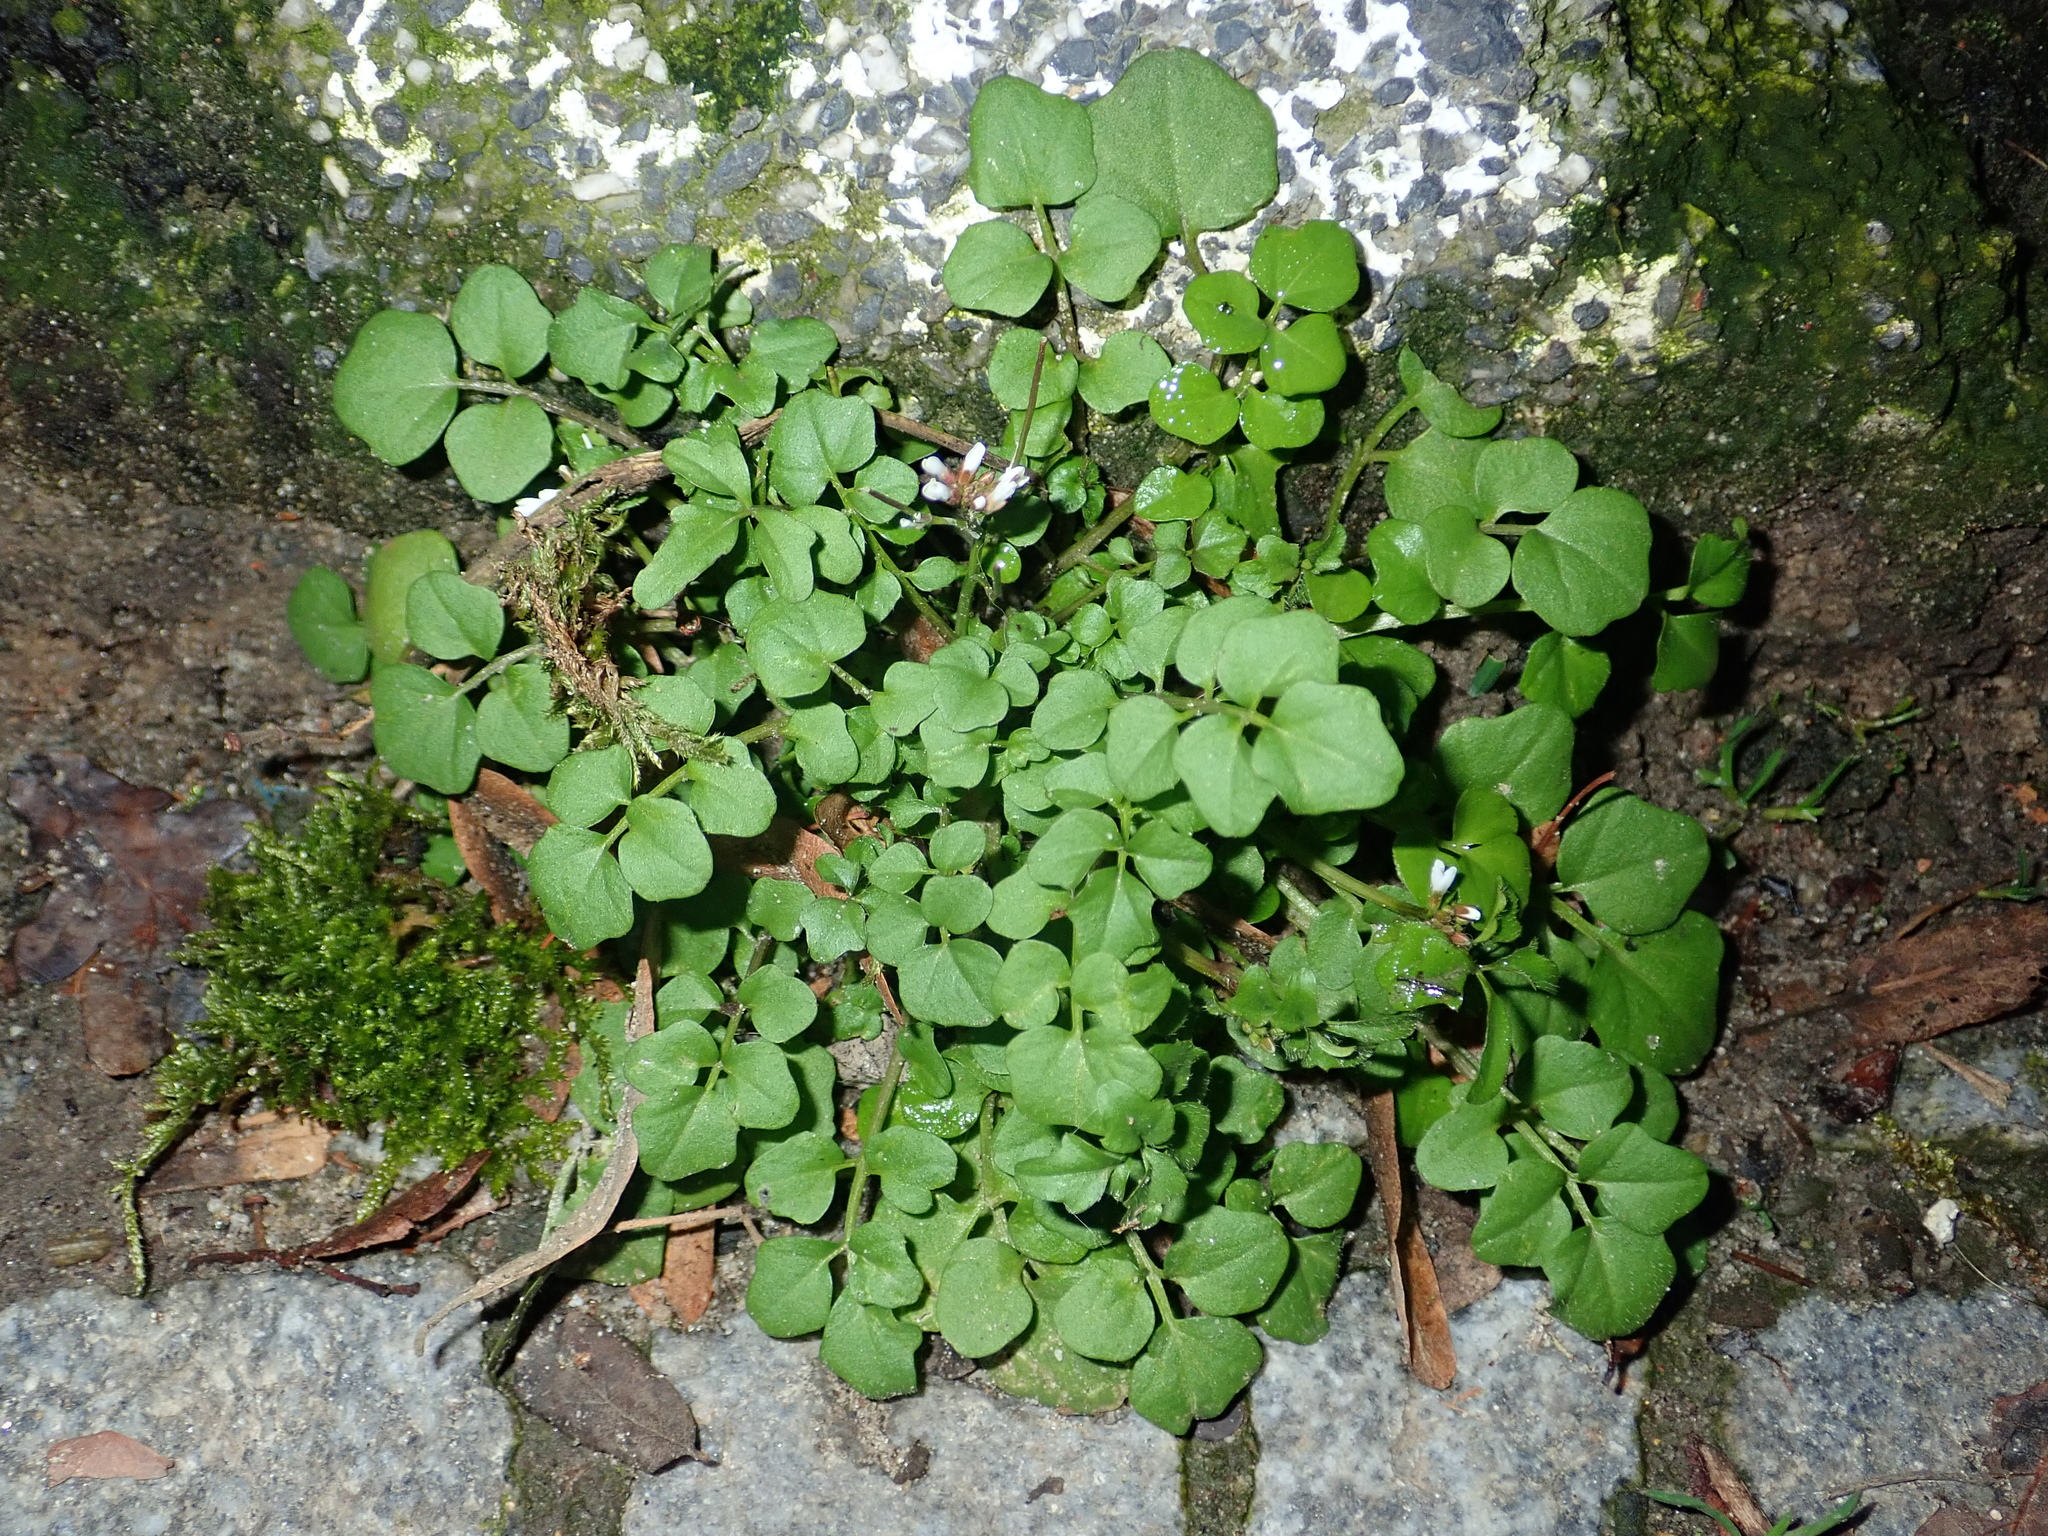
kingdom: Plantae
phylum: Tracheophyta
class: Magnoliopsida
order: Brassicales
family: Brassicaceae
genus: Cardamine
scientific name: Cardamine hirsuta
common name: Hairy bittercress
